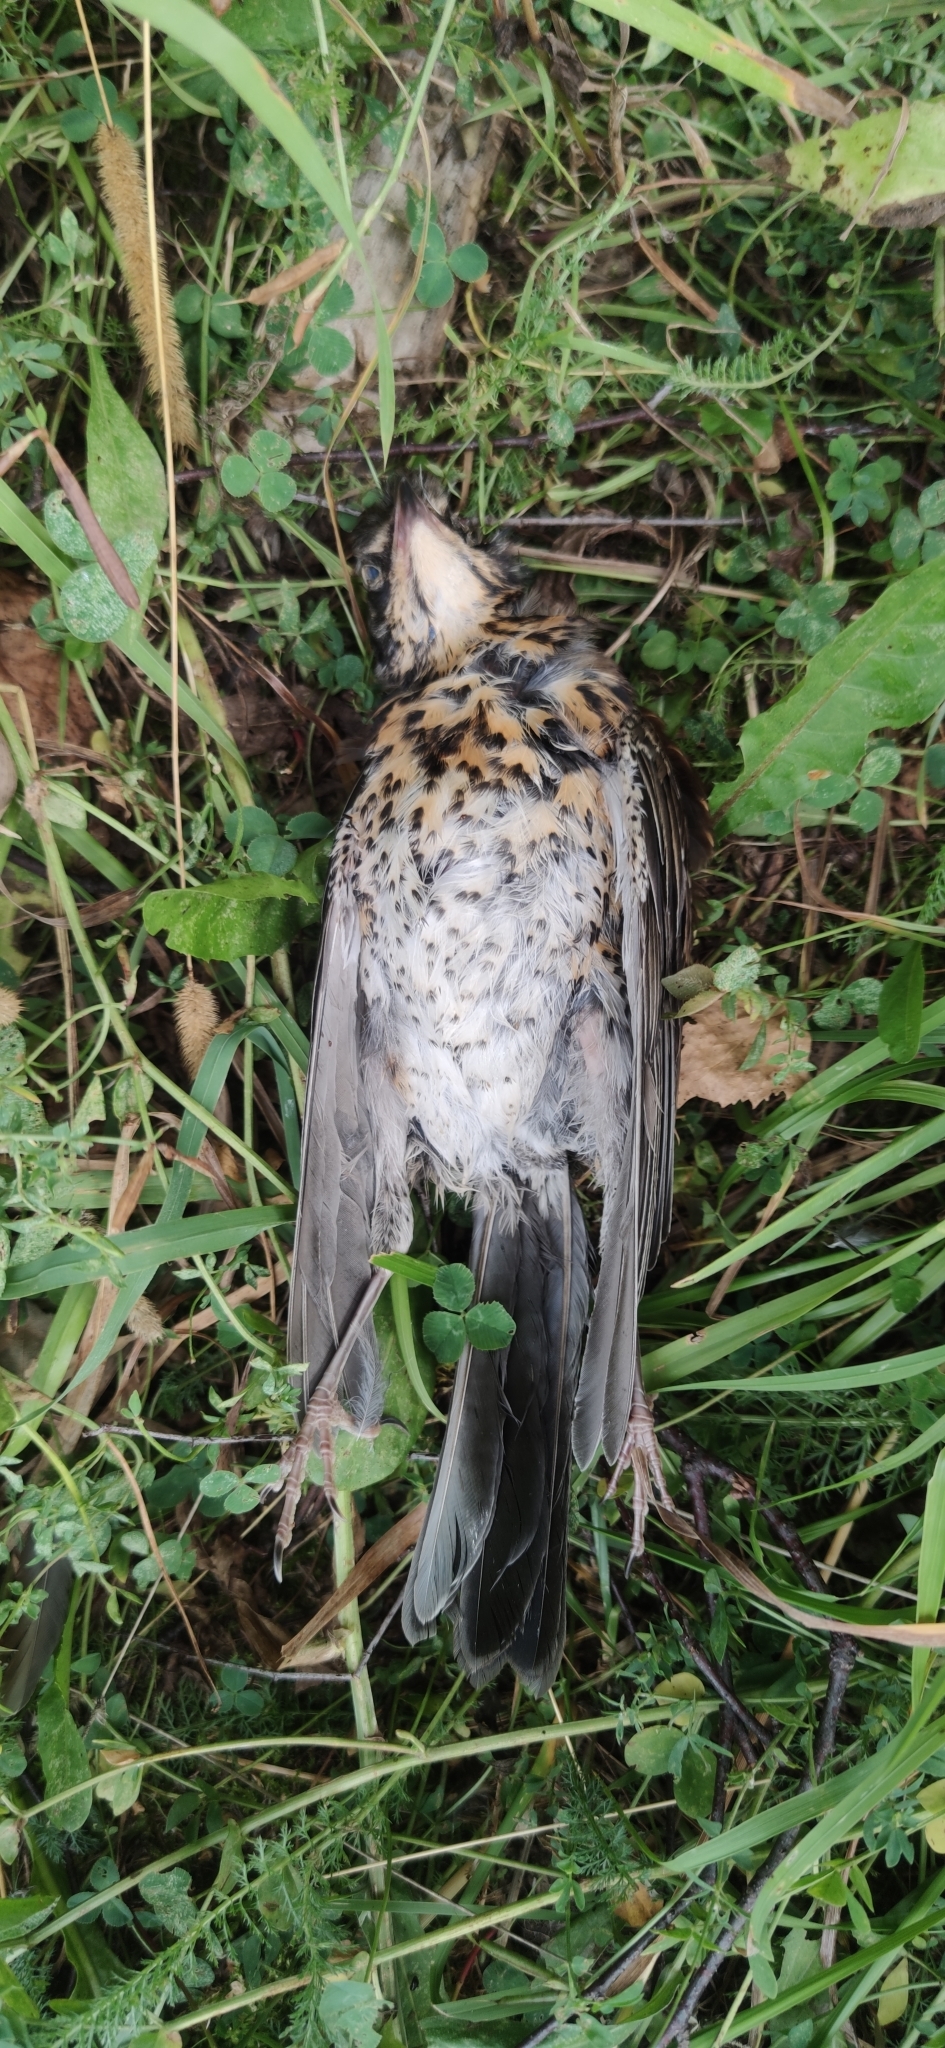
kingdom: Animalia
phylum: Chordata
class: Aves
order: Passeriformes
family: Turdidae
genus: Turdus
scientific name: Turdus pilaris
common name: Fieldfare
